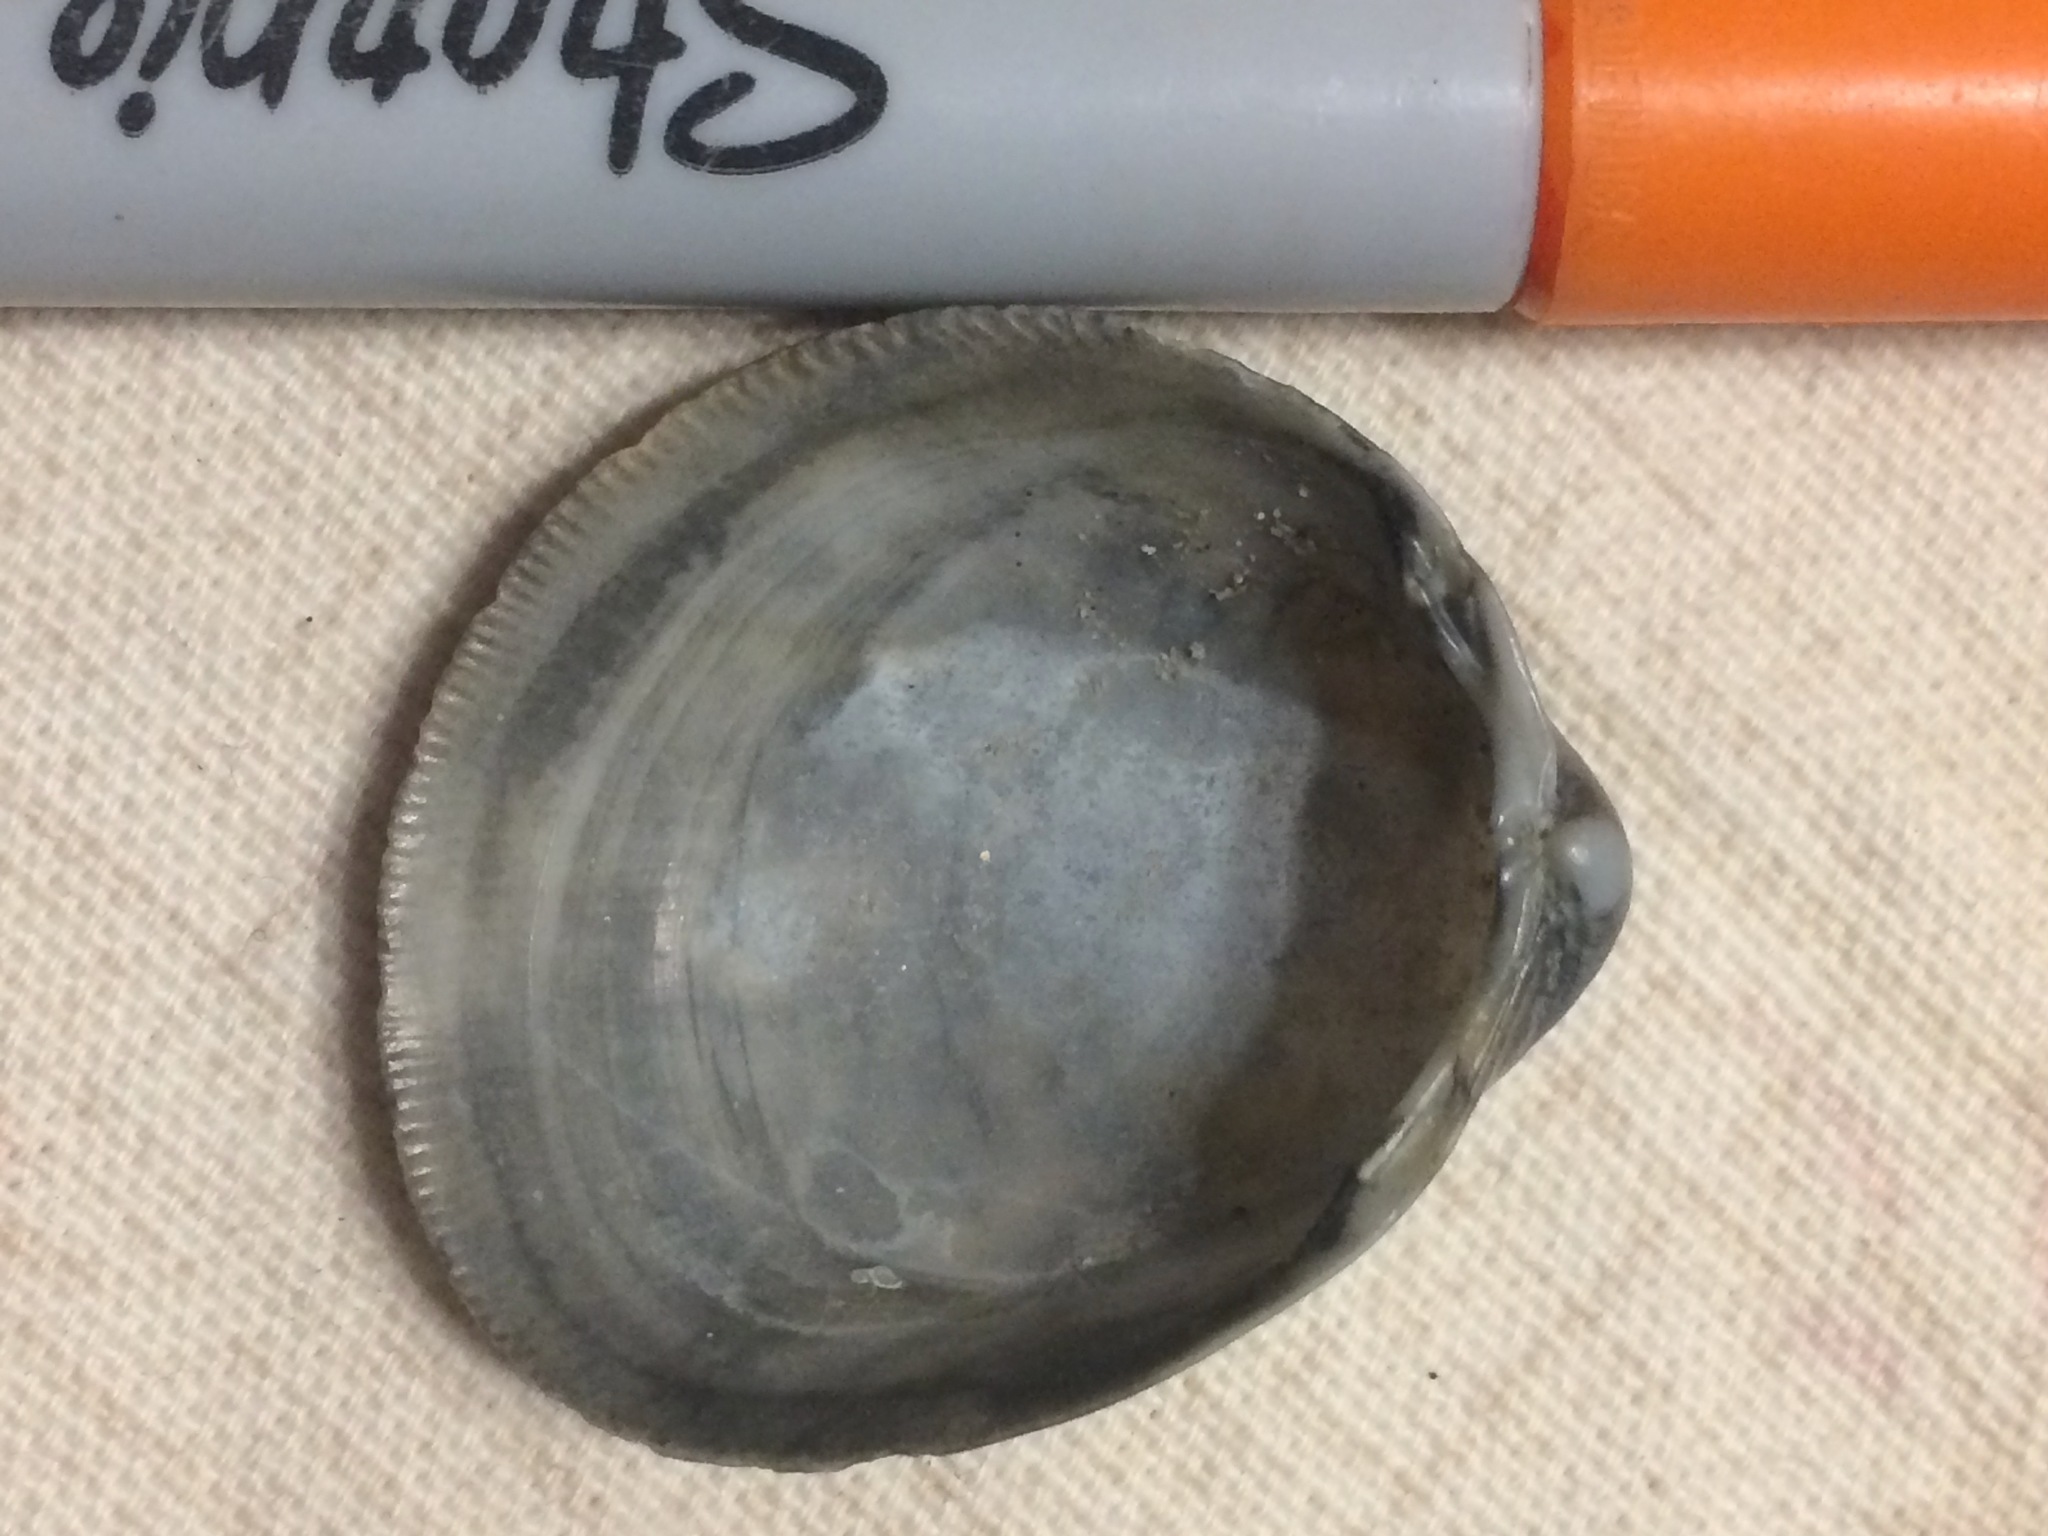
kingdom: Animalia
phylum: Mollusca
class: Bivalvia
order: Cardiida
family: Cardiidae
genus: Laevicardium
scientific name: Laevicardium serratum
